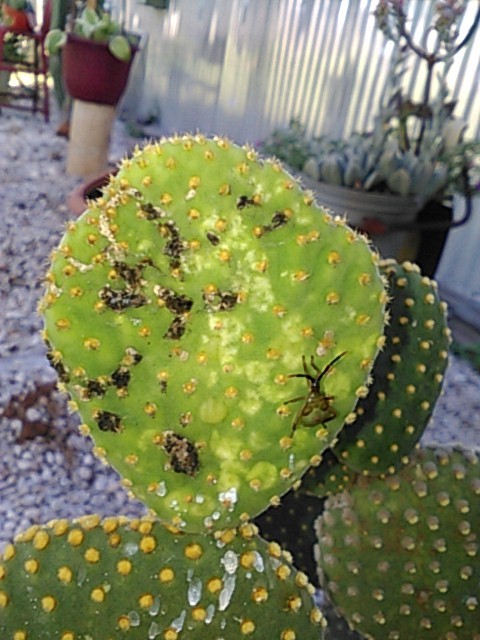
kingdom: Animalia
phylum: Arthropoda
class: Insecta
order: Hemiptera
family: Coreidae
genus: Chelinidea
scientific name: Chelinidea vittiger
